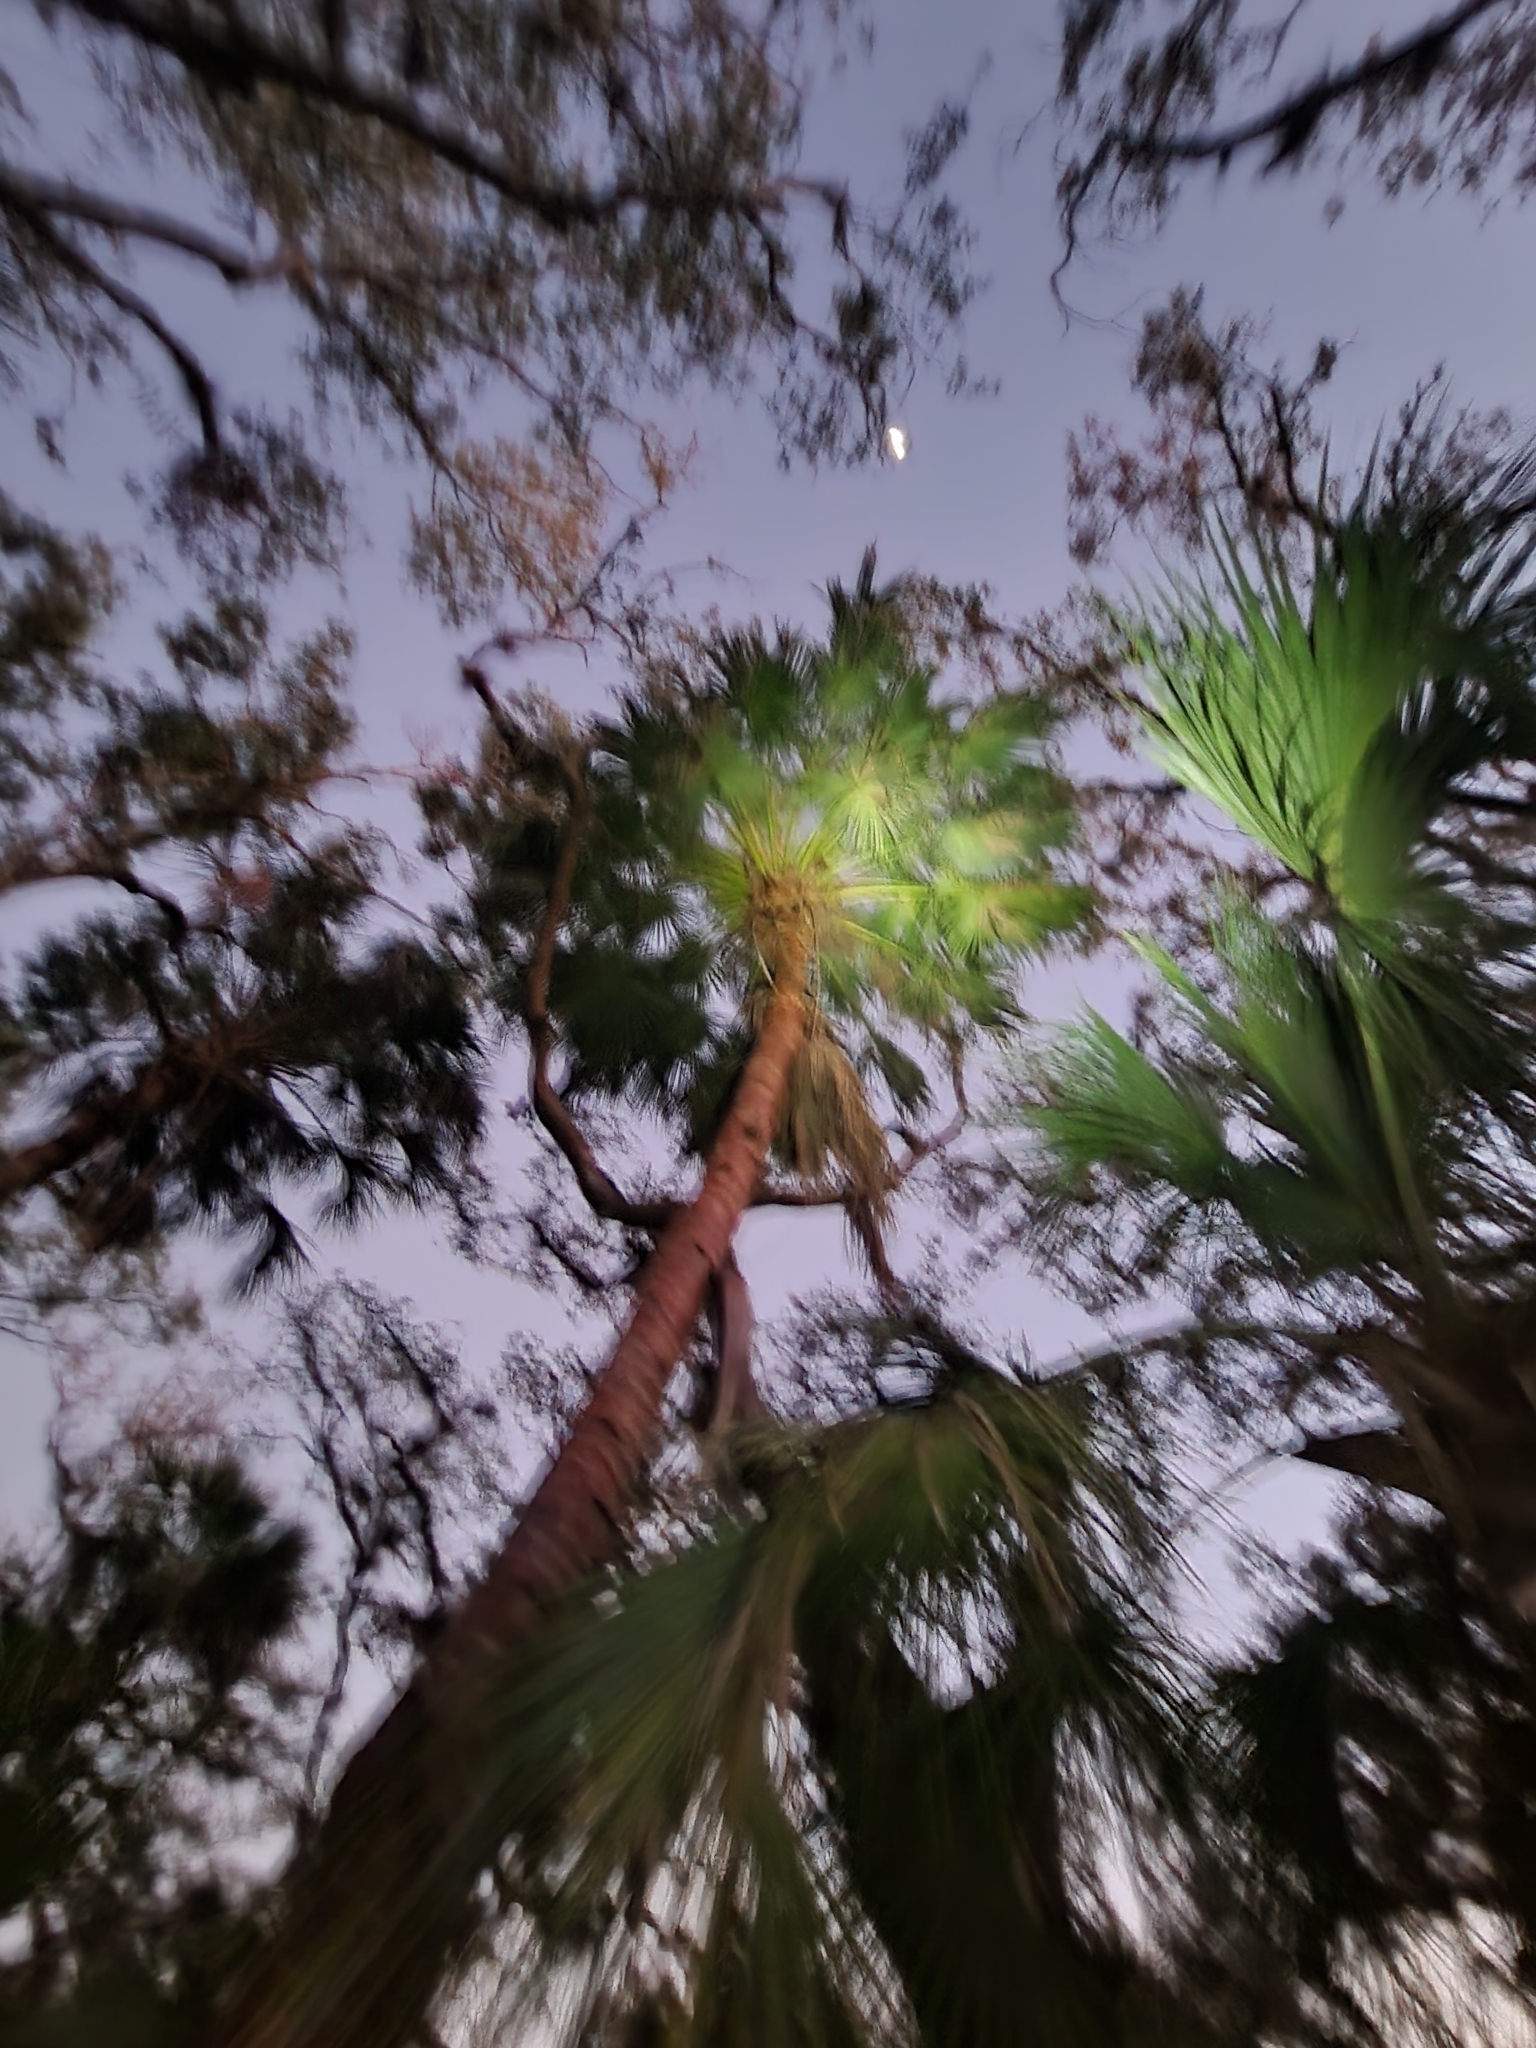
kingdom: Plantae
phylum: Tracheophyta
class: Liliopsida
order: Arecales
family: Arecaceae
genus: Livistona
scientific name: Livistona chinensis
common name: Fountain palm
